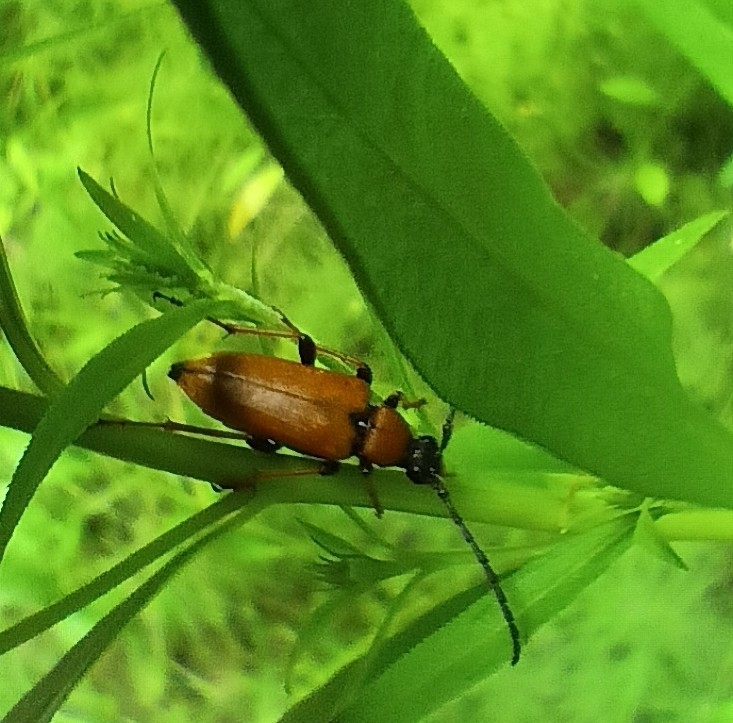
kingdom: Animalia
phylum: Arthropoda
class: Insecta
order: Coleoptera
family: Cerambycidae
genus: Stictoleptura
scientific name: Stictoleptura rubra
